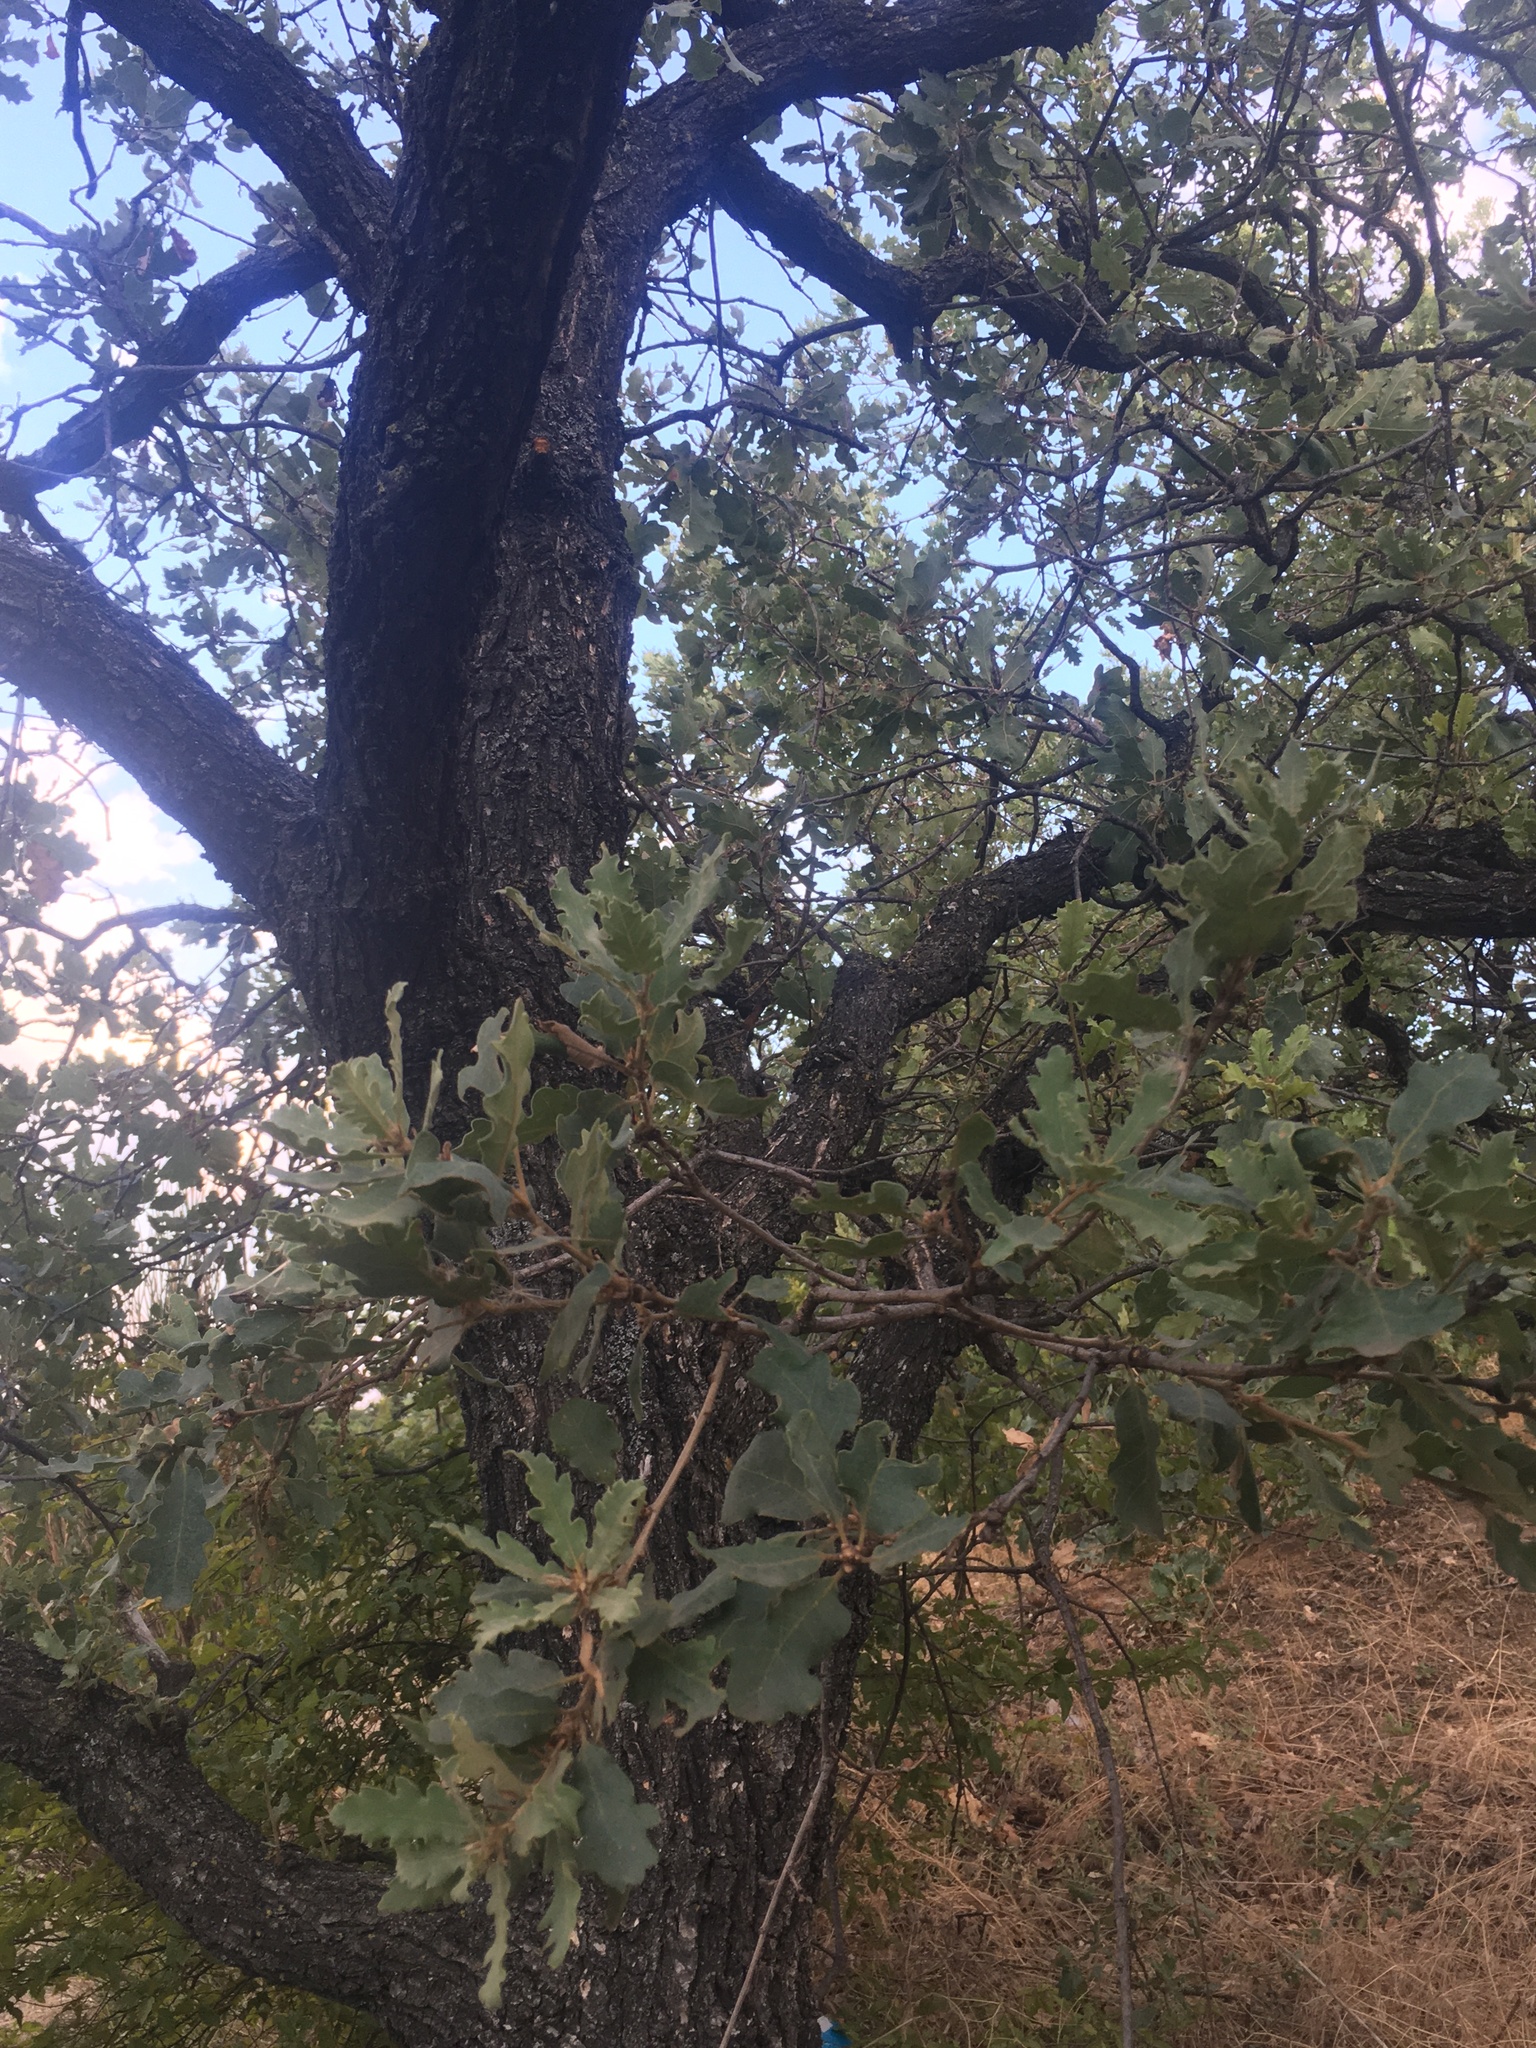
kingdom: Plantae
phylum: Tracheophyta
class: Magnoliopsida
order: Fagales
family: Fagaceae
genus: Quercus
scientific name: Quercus pubescens
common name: Downy oak
